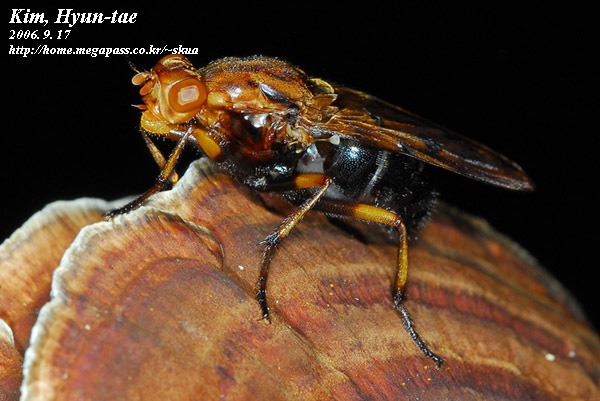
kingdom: Animalia
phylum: Arthropoda
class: Insecta
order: Diptera
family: Dryomyzidae
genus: Dryomyza
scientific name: Dryomyza formosa
